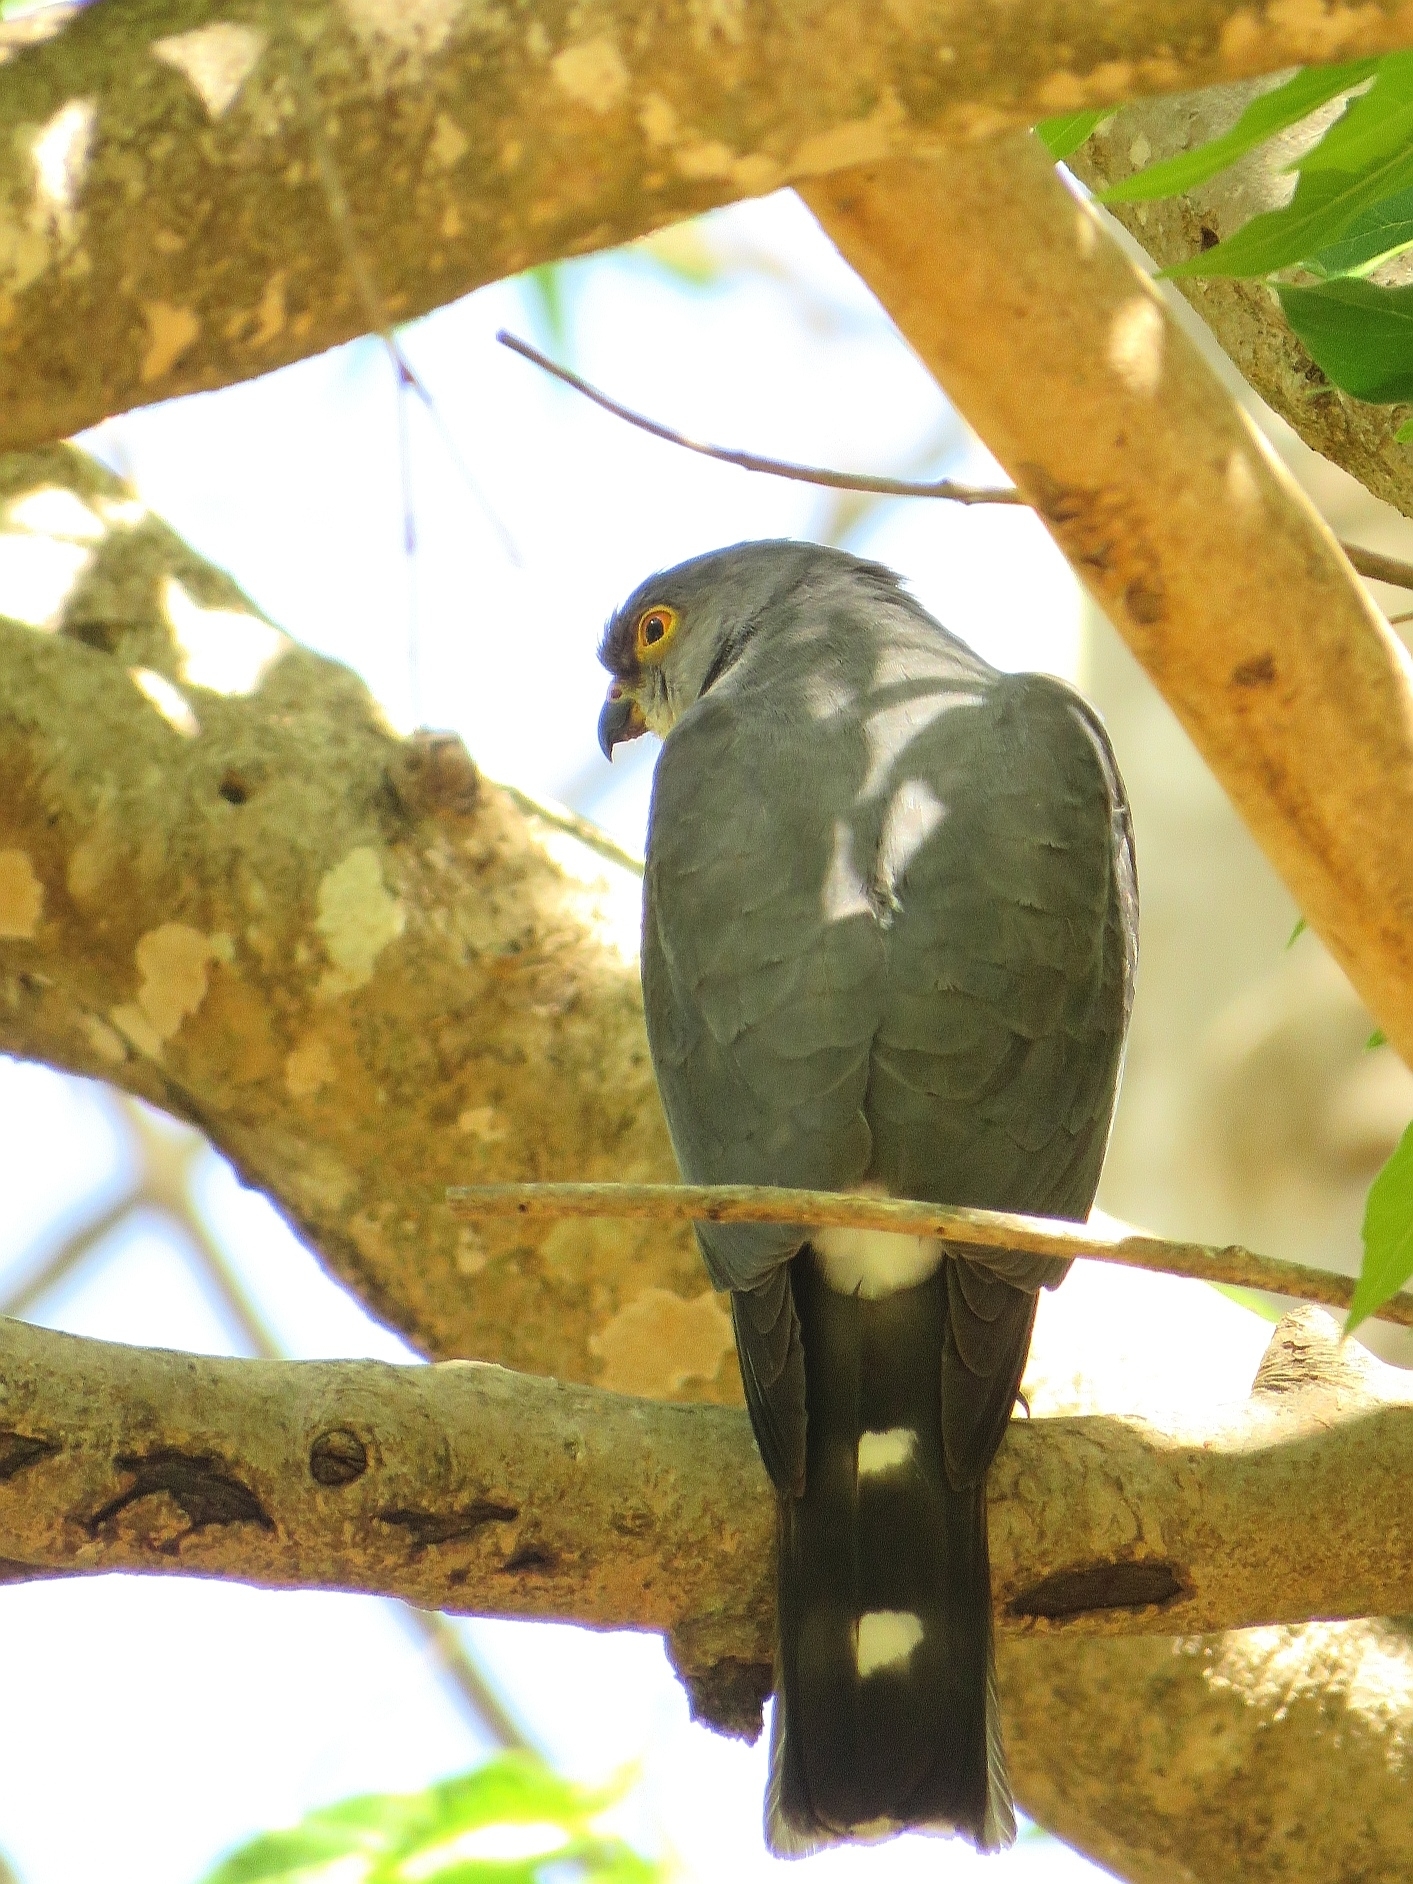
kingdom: Animalia
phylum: Chordata
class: Aves
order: Accipitriformes
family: Accipitridae
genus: Accipiter
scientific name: Accipiter minullus
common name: Little sparrowhawk
